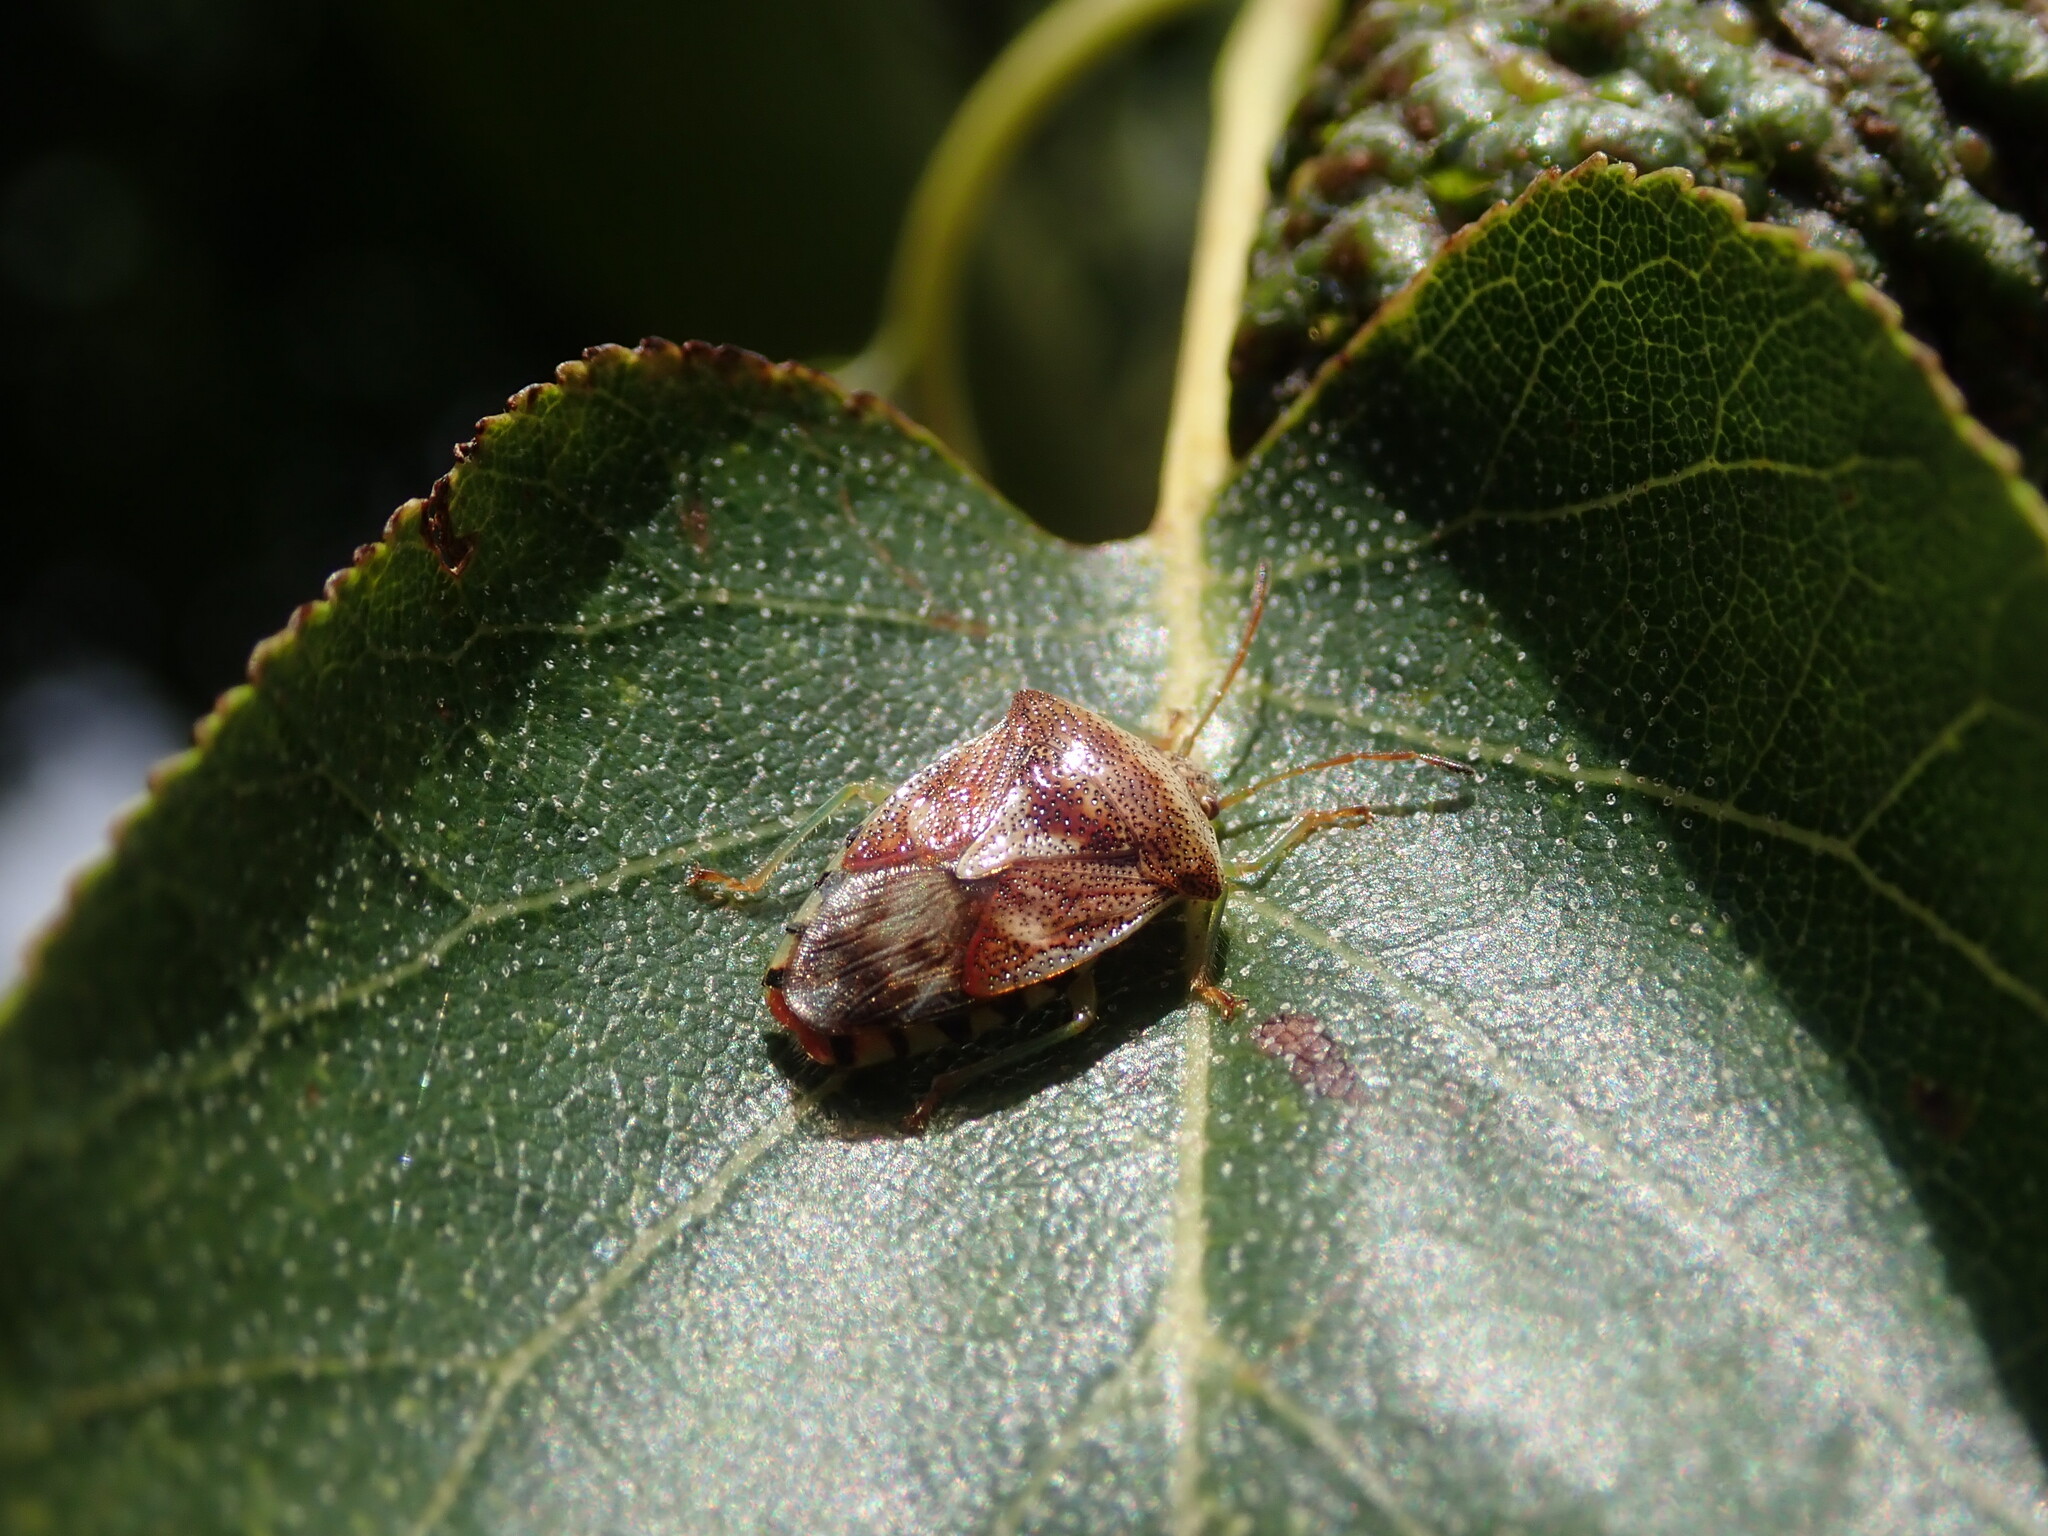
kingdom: Animalia
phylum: Arthropoda
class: Insecta
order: Hemiptera
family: Acanthosomatidae
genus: Elasmucha
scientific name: Elasmucha grisea
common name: Parent bug
